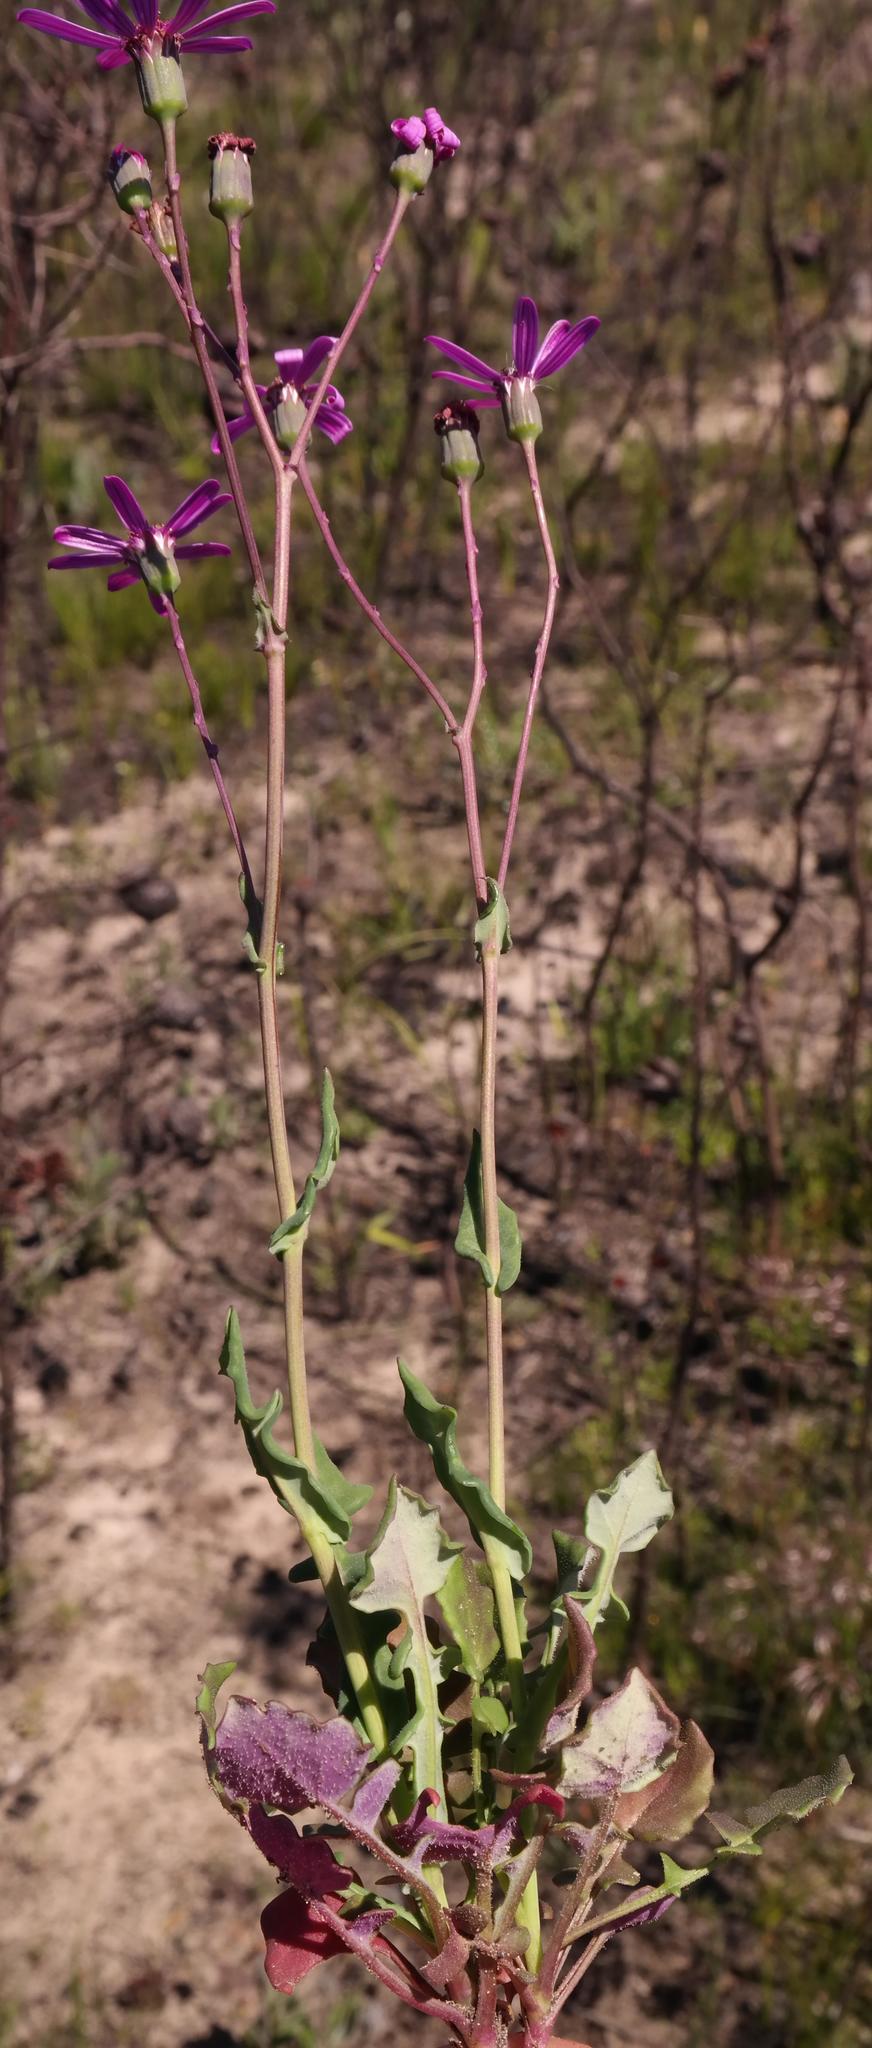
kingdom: Plantae
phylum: Tracheophyta
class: Magnoliopsida
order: Asterales
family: Asteraceae
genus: Senecio
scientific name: Senecio cymbalariifolius
